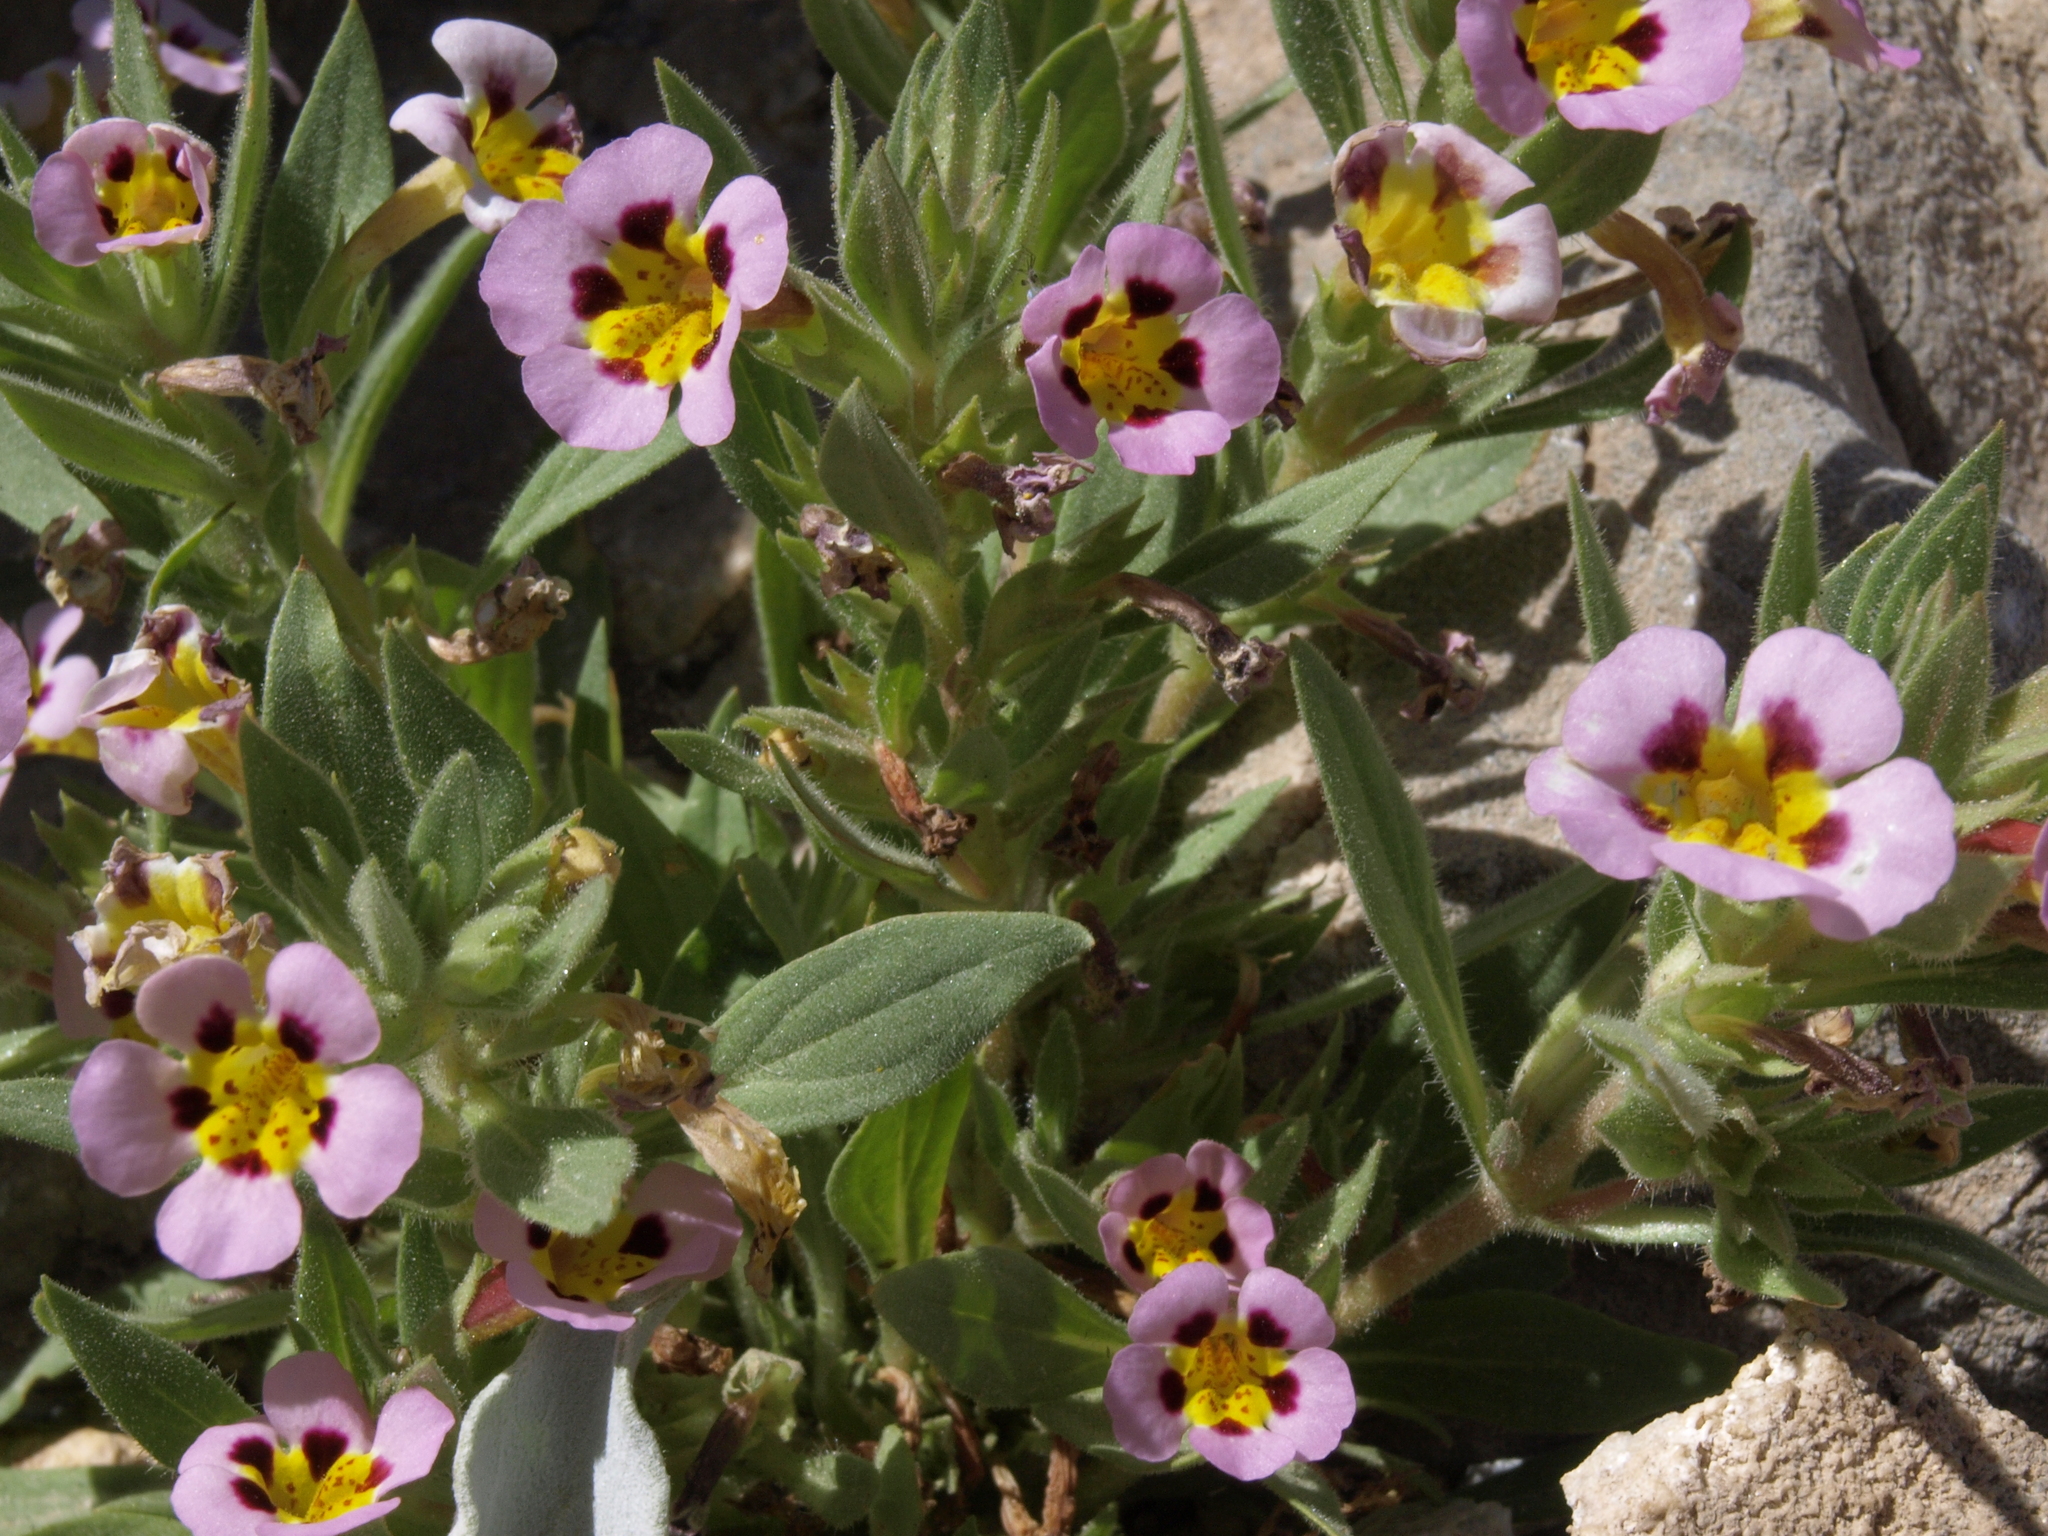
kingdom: Plantae
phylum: Tracheophyta
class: Magnoliopsida
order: Lamiales
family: Phrymaceae
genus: Diplacus
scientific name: Diplacus rupicola
